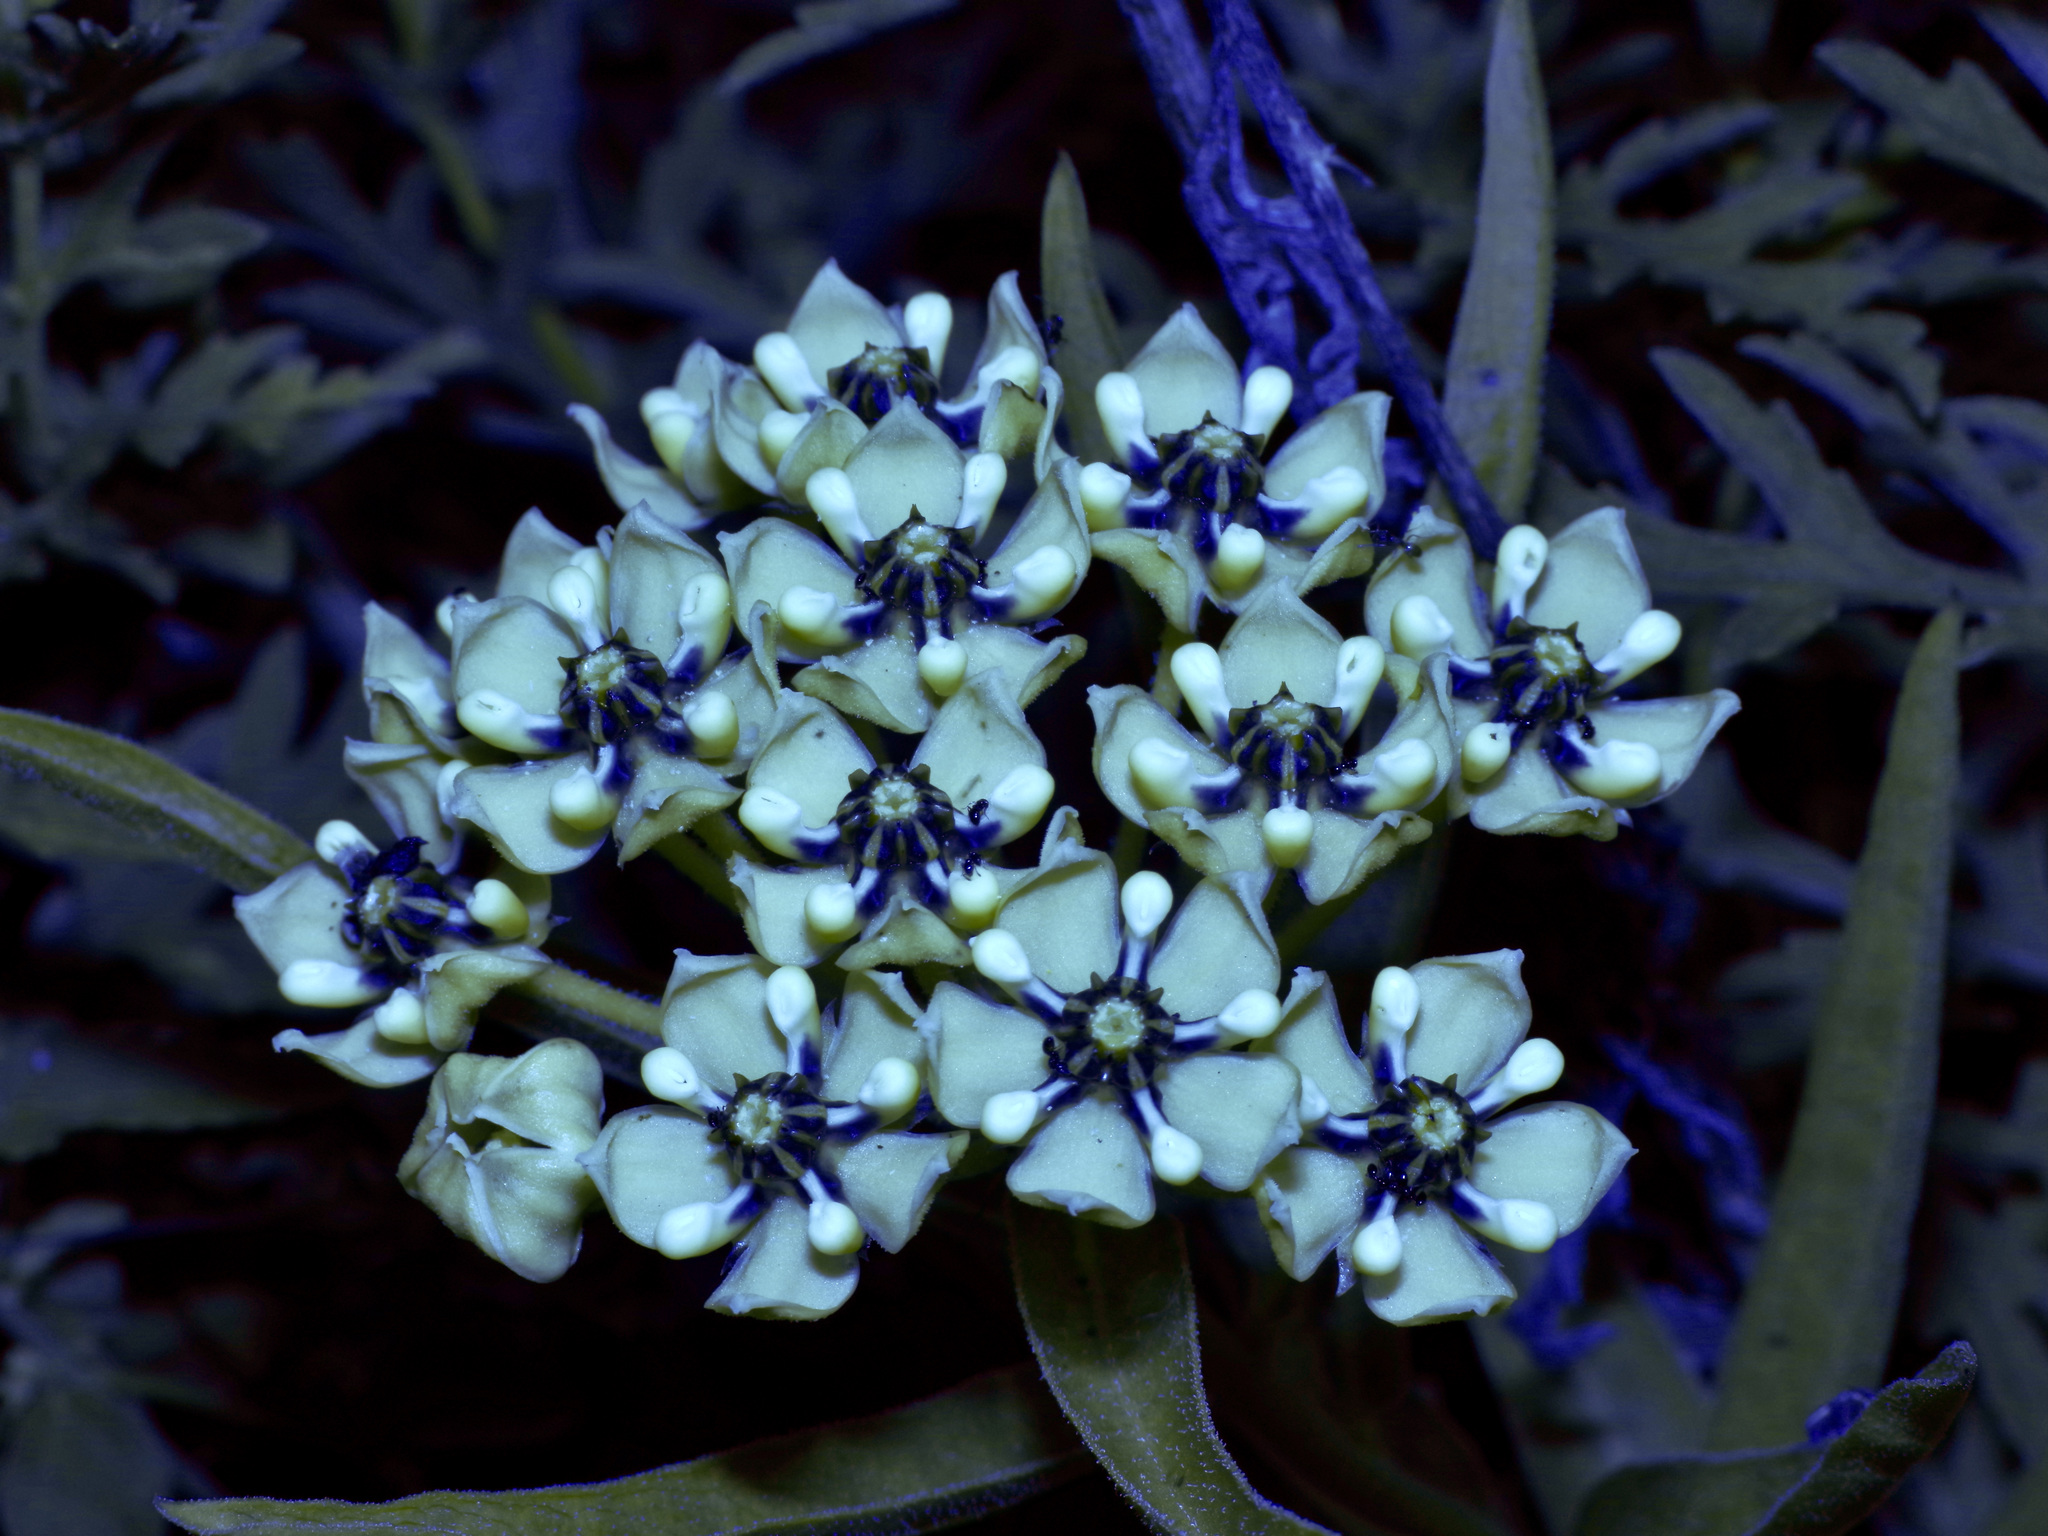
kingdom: Plantae
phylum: Tracheophyta
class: Magnoliopsida
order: Gentianales
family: Apocynaceae
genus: Asclepias
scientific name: Asclepias asperula
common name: Antelope horns
